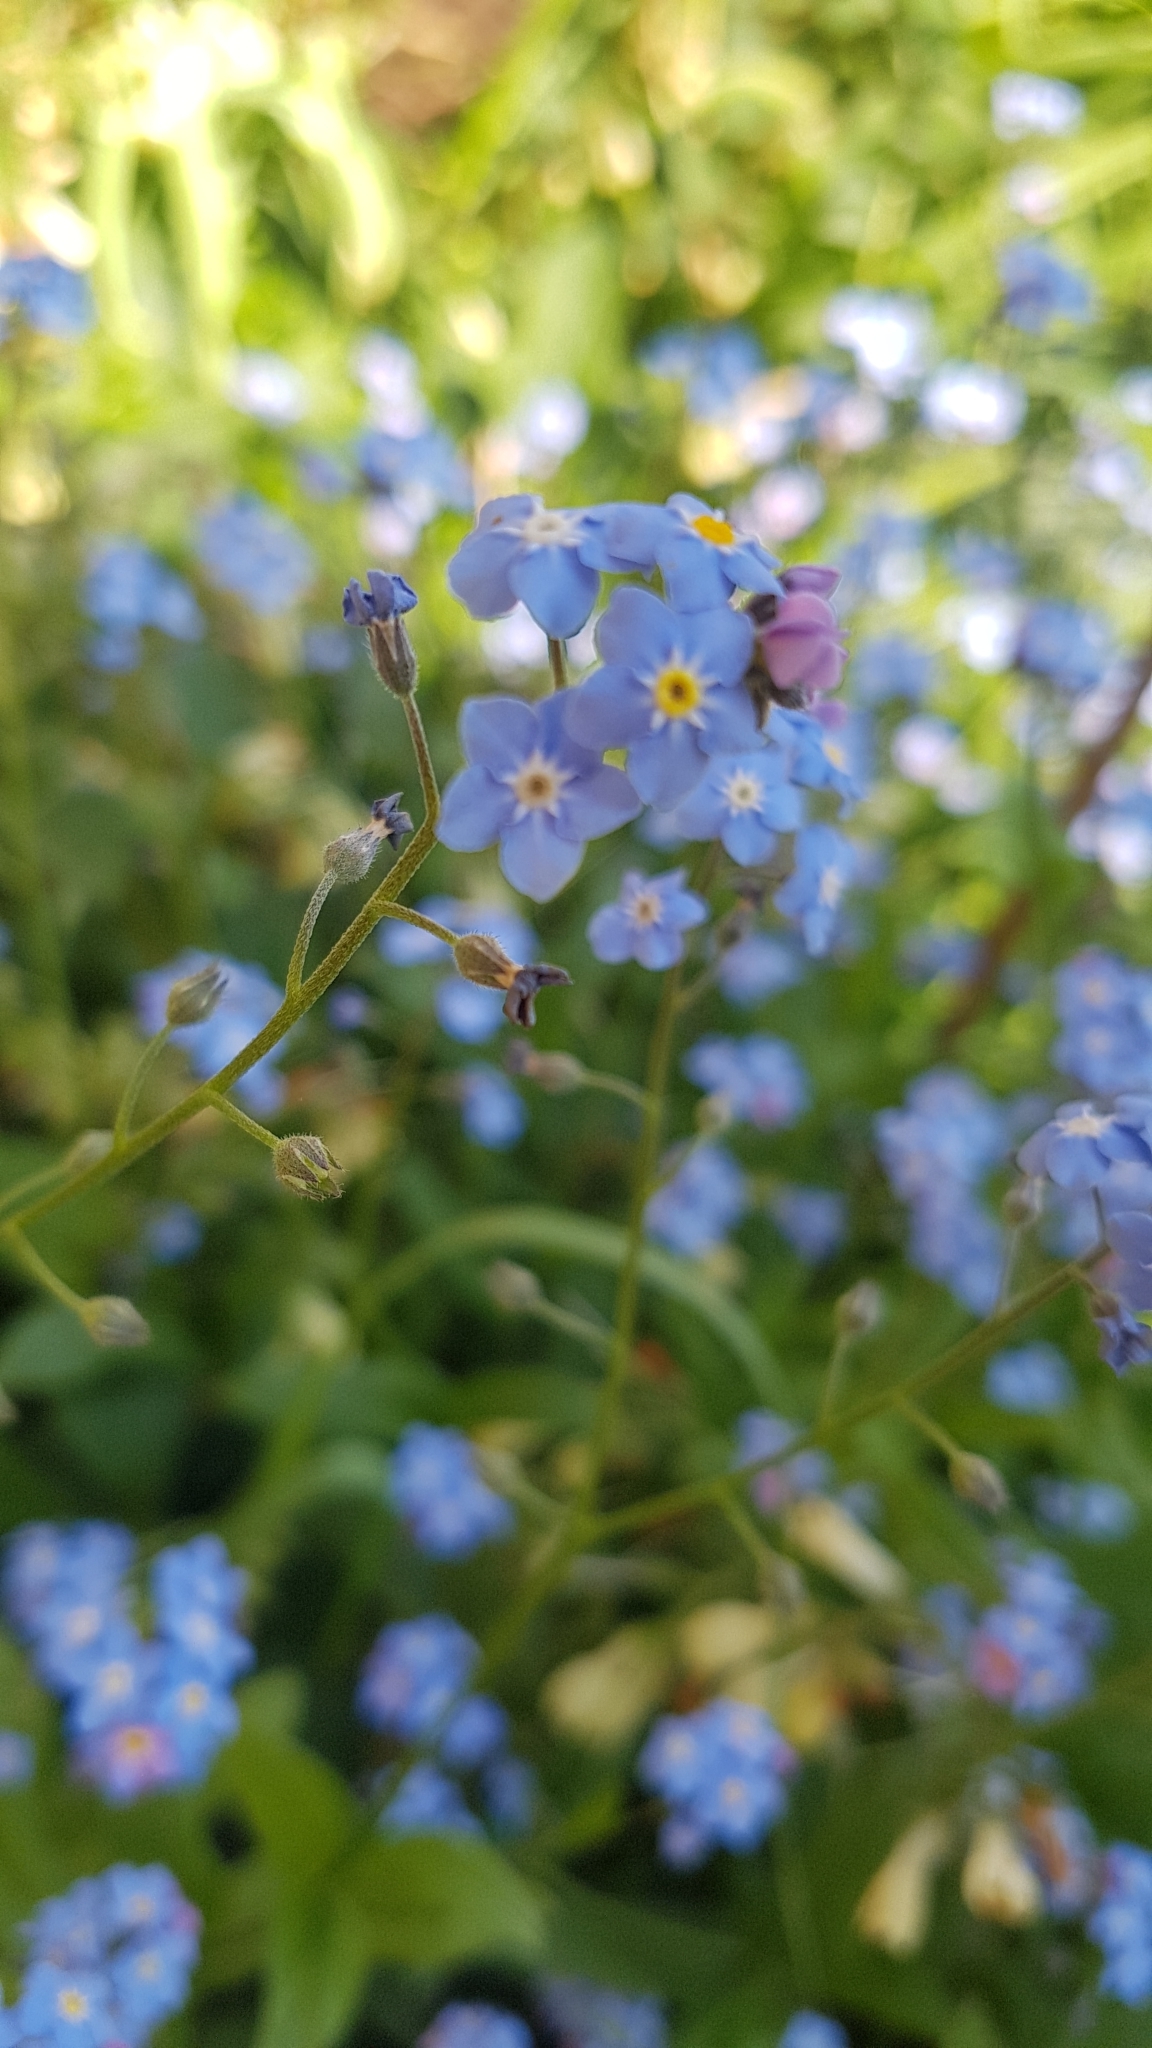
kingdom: Plantae
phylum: Tracheophyta
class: Magnoliopsida
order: Boraginales
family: Boraginaceae
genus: Myosotis
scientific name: Myosotis sylvatica
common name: Wood forget-me-not
